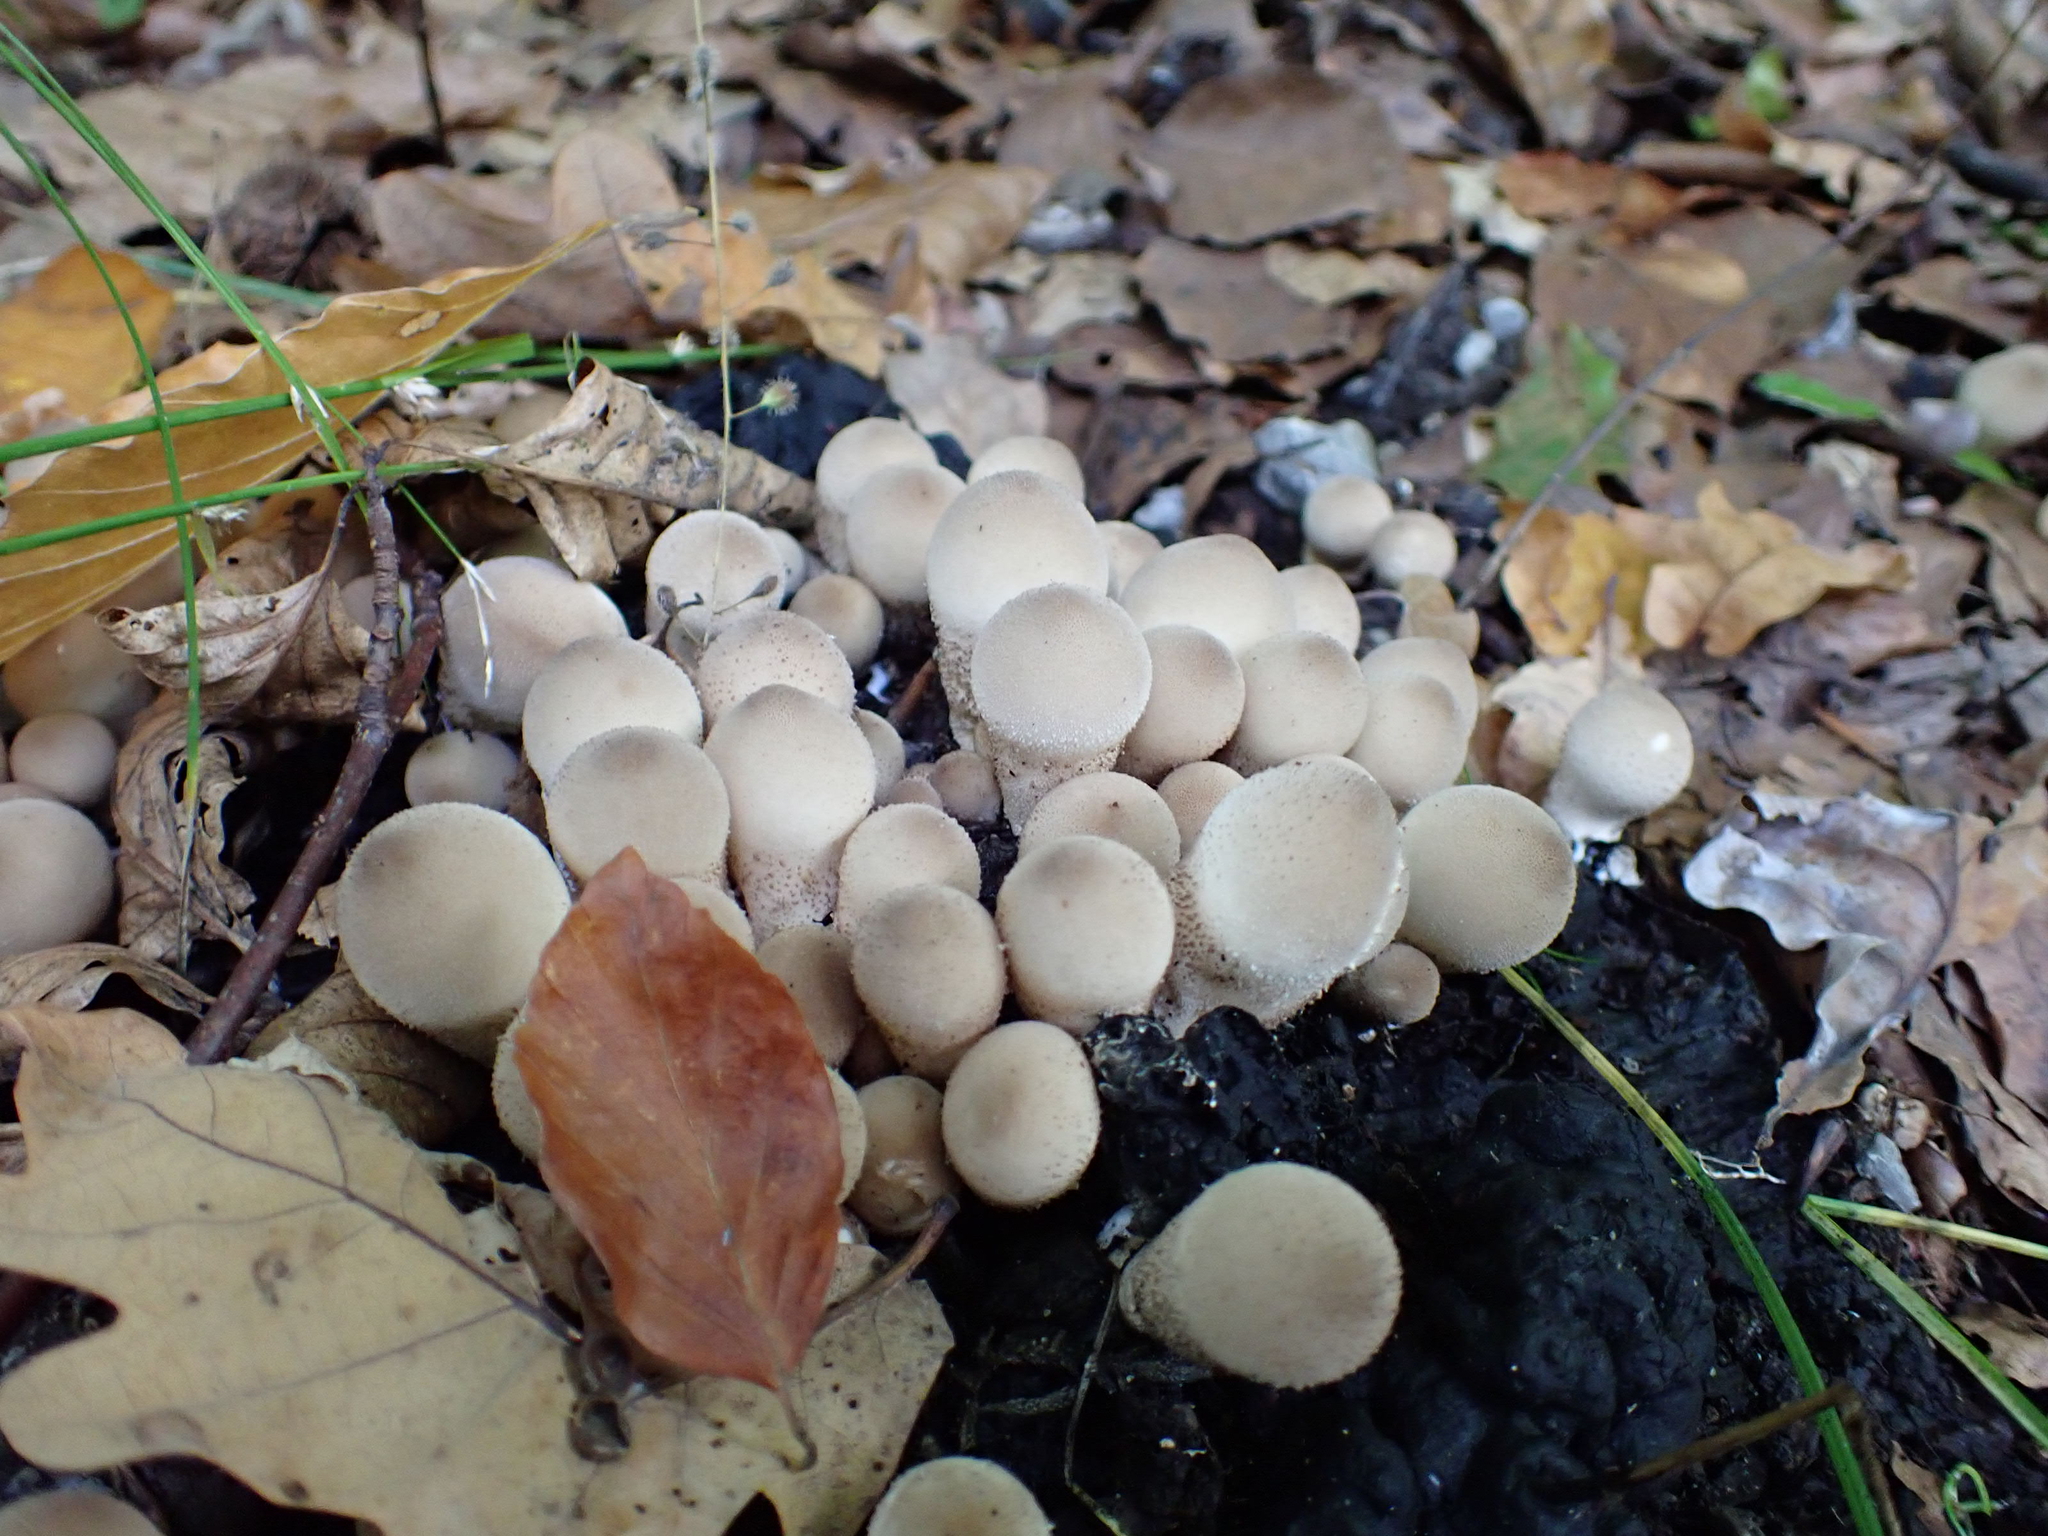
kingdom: Fungi
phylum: Basidiomycota
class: Agaricomycetes
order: Agaricales
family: Lycoperdaceae
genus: Apioperdon
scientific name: Apioperdon pyriforme
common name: Pear-shaped puffball
